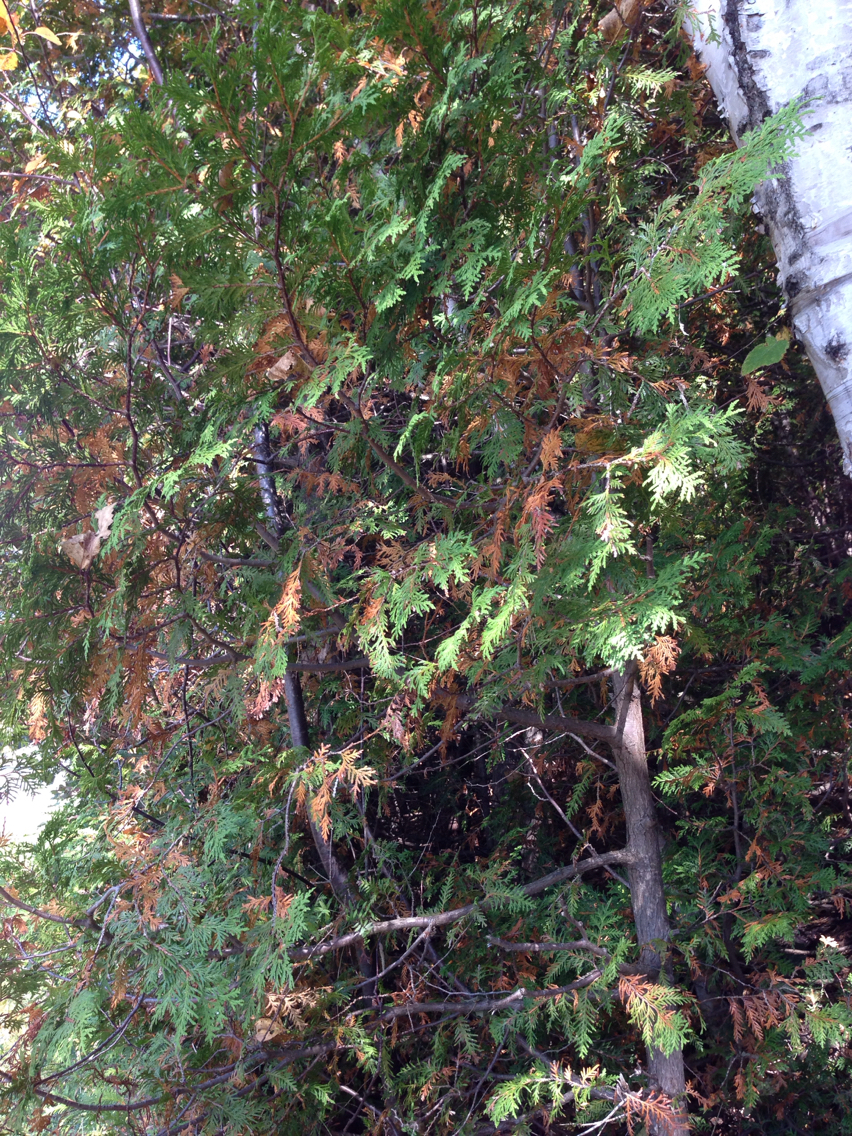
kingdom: Plantae
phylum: Tracheophyta
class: Pinopsida
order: Pinales
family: Cupressaceae
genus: Thuja
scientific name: Thuja occidentalis
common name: Northern white-cedar
